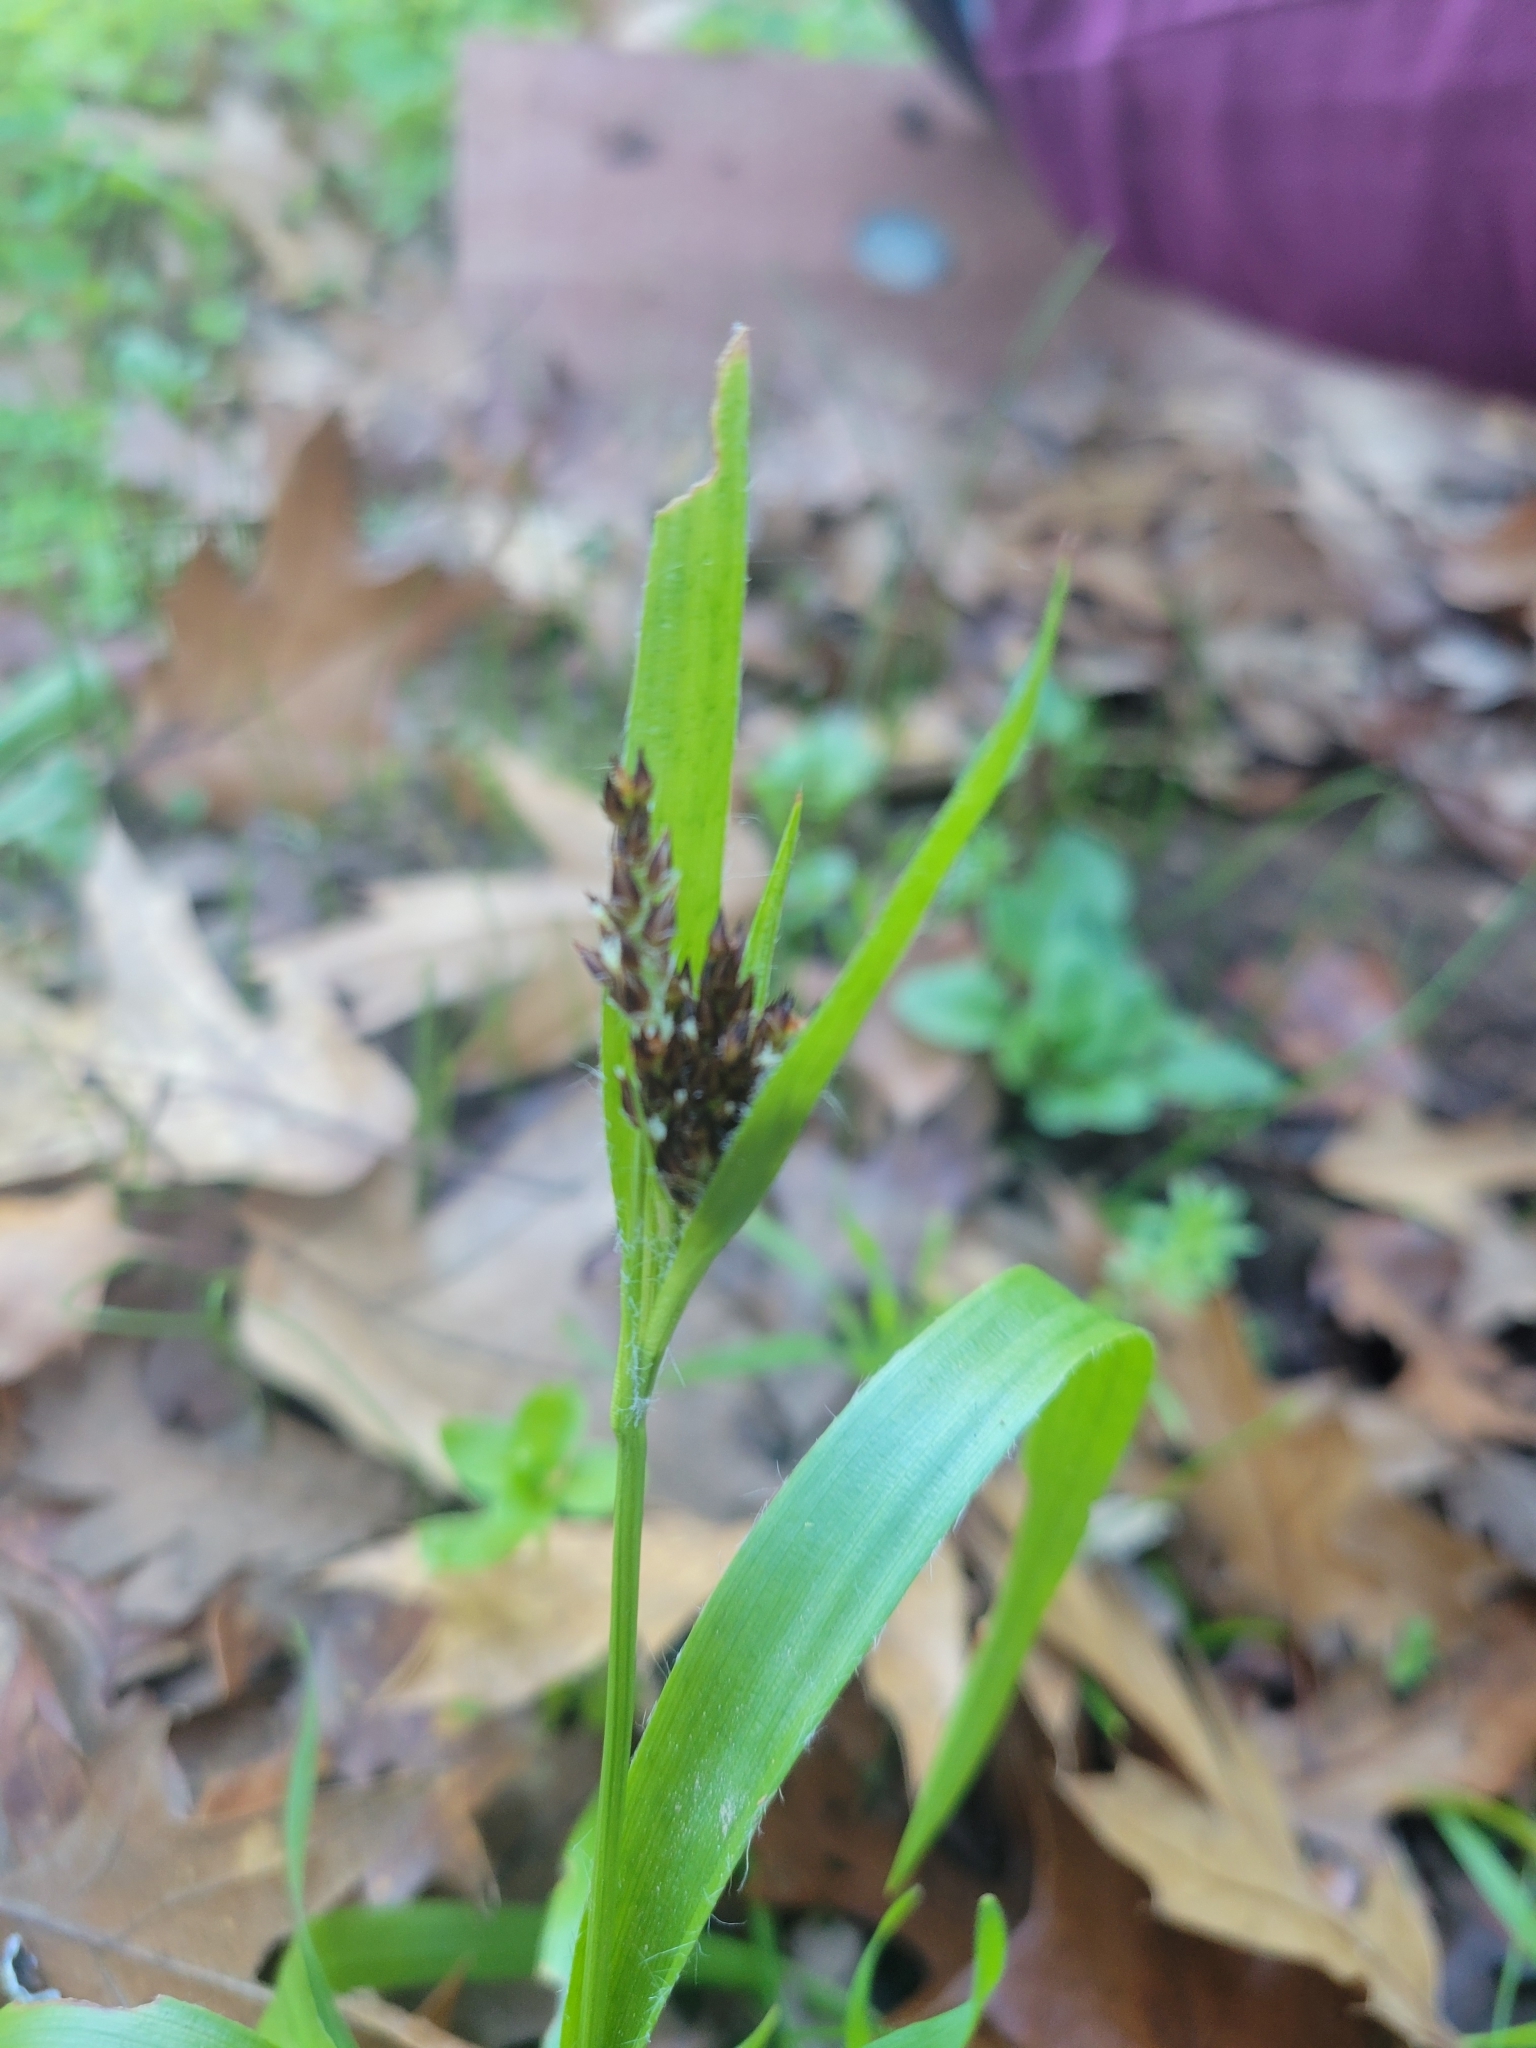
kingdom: Plantae
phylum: Tracheophyta
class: Liliopsida
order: Poales
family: Juncaceae
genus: Luzula
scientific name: Luzula comosa
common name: Pacific woodrush
